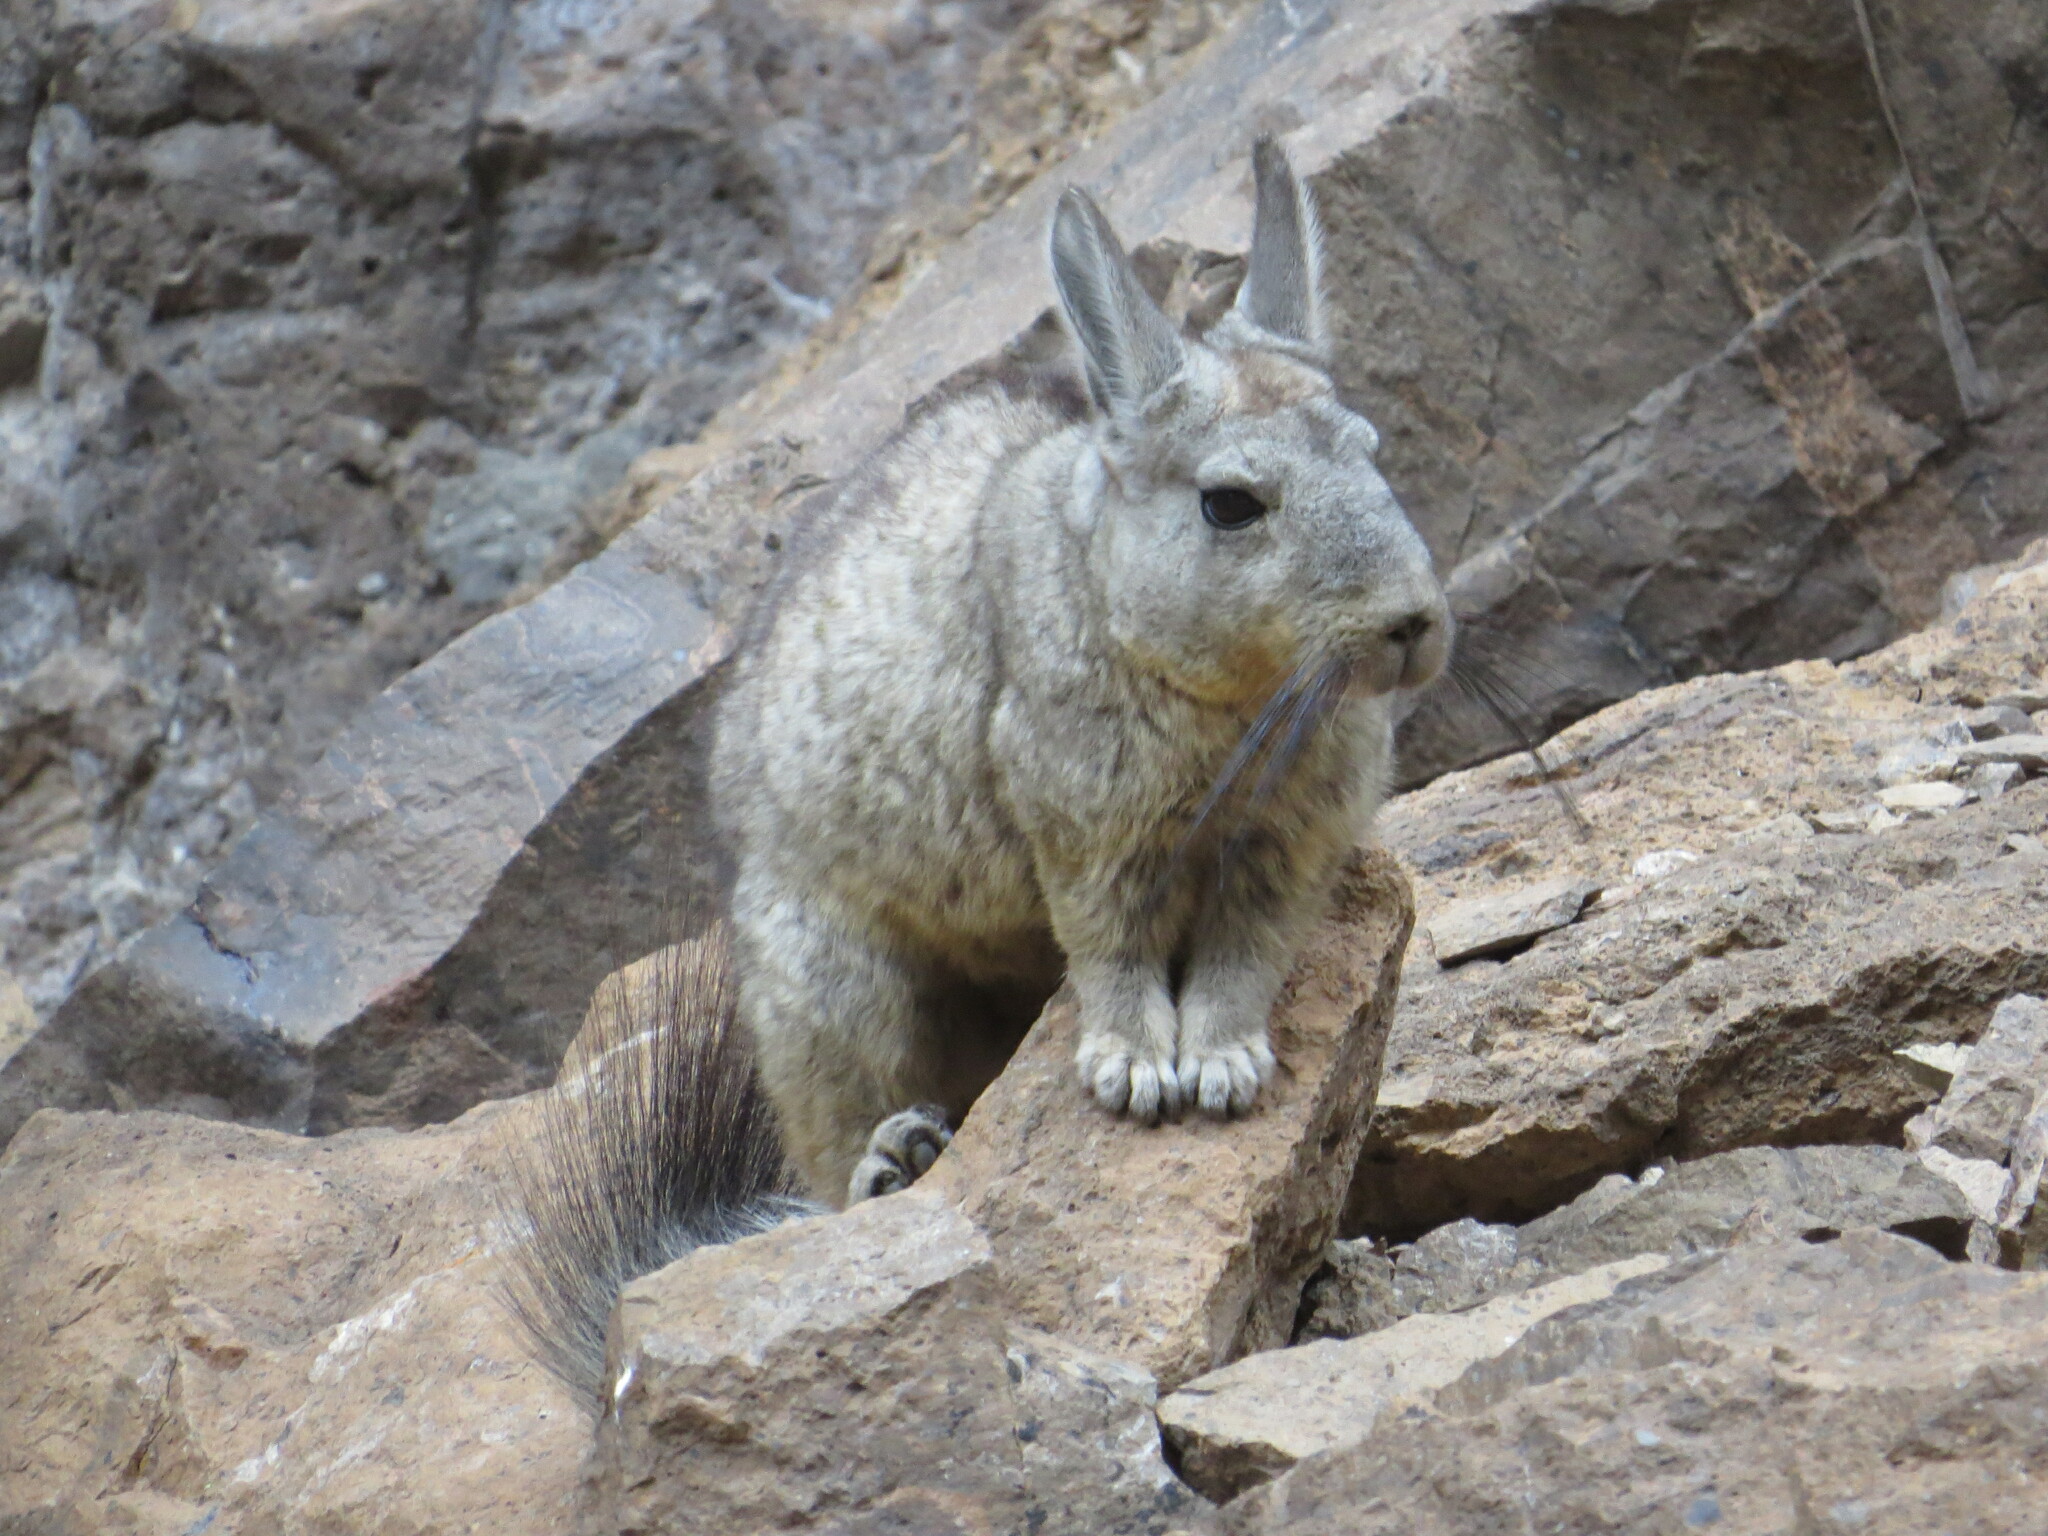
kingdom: Animalia
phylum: Chordata
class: Mammalia
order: Rodentia
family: Chinchillidae
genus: Lagidium
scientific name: Lagidium viscacia
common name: Southern viscacha
